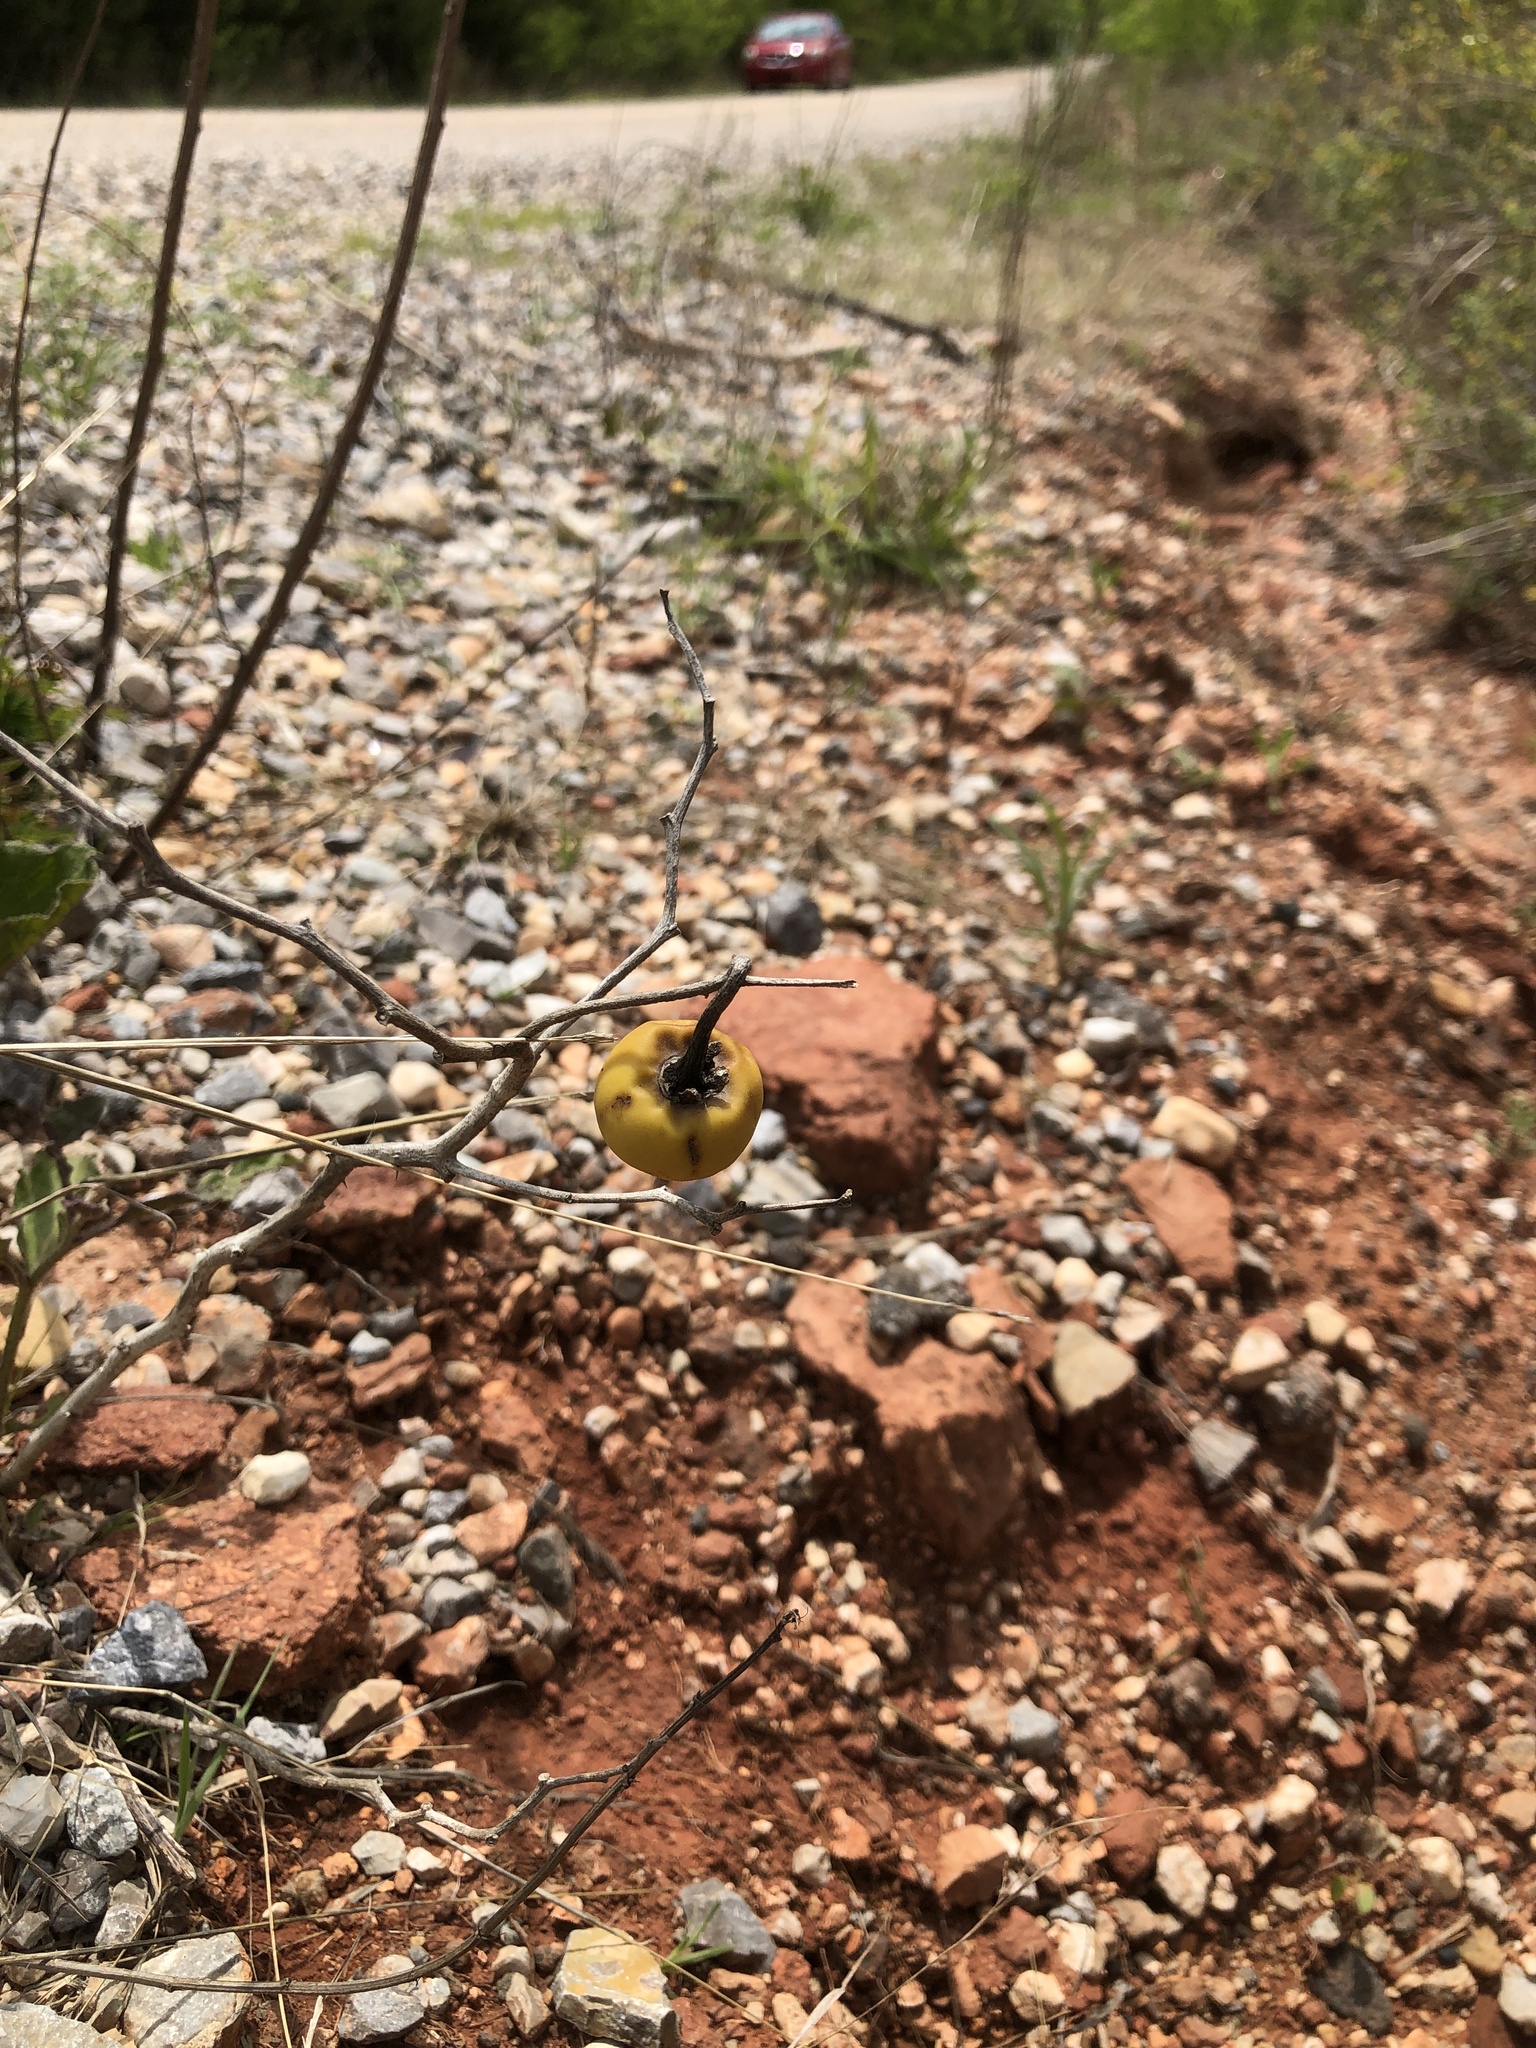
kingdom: Plantae
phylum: Tracheophyta
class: Magnoliopsida
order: Solanales
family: Solanaceae
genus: Solanum
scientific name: Solanum
